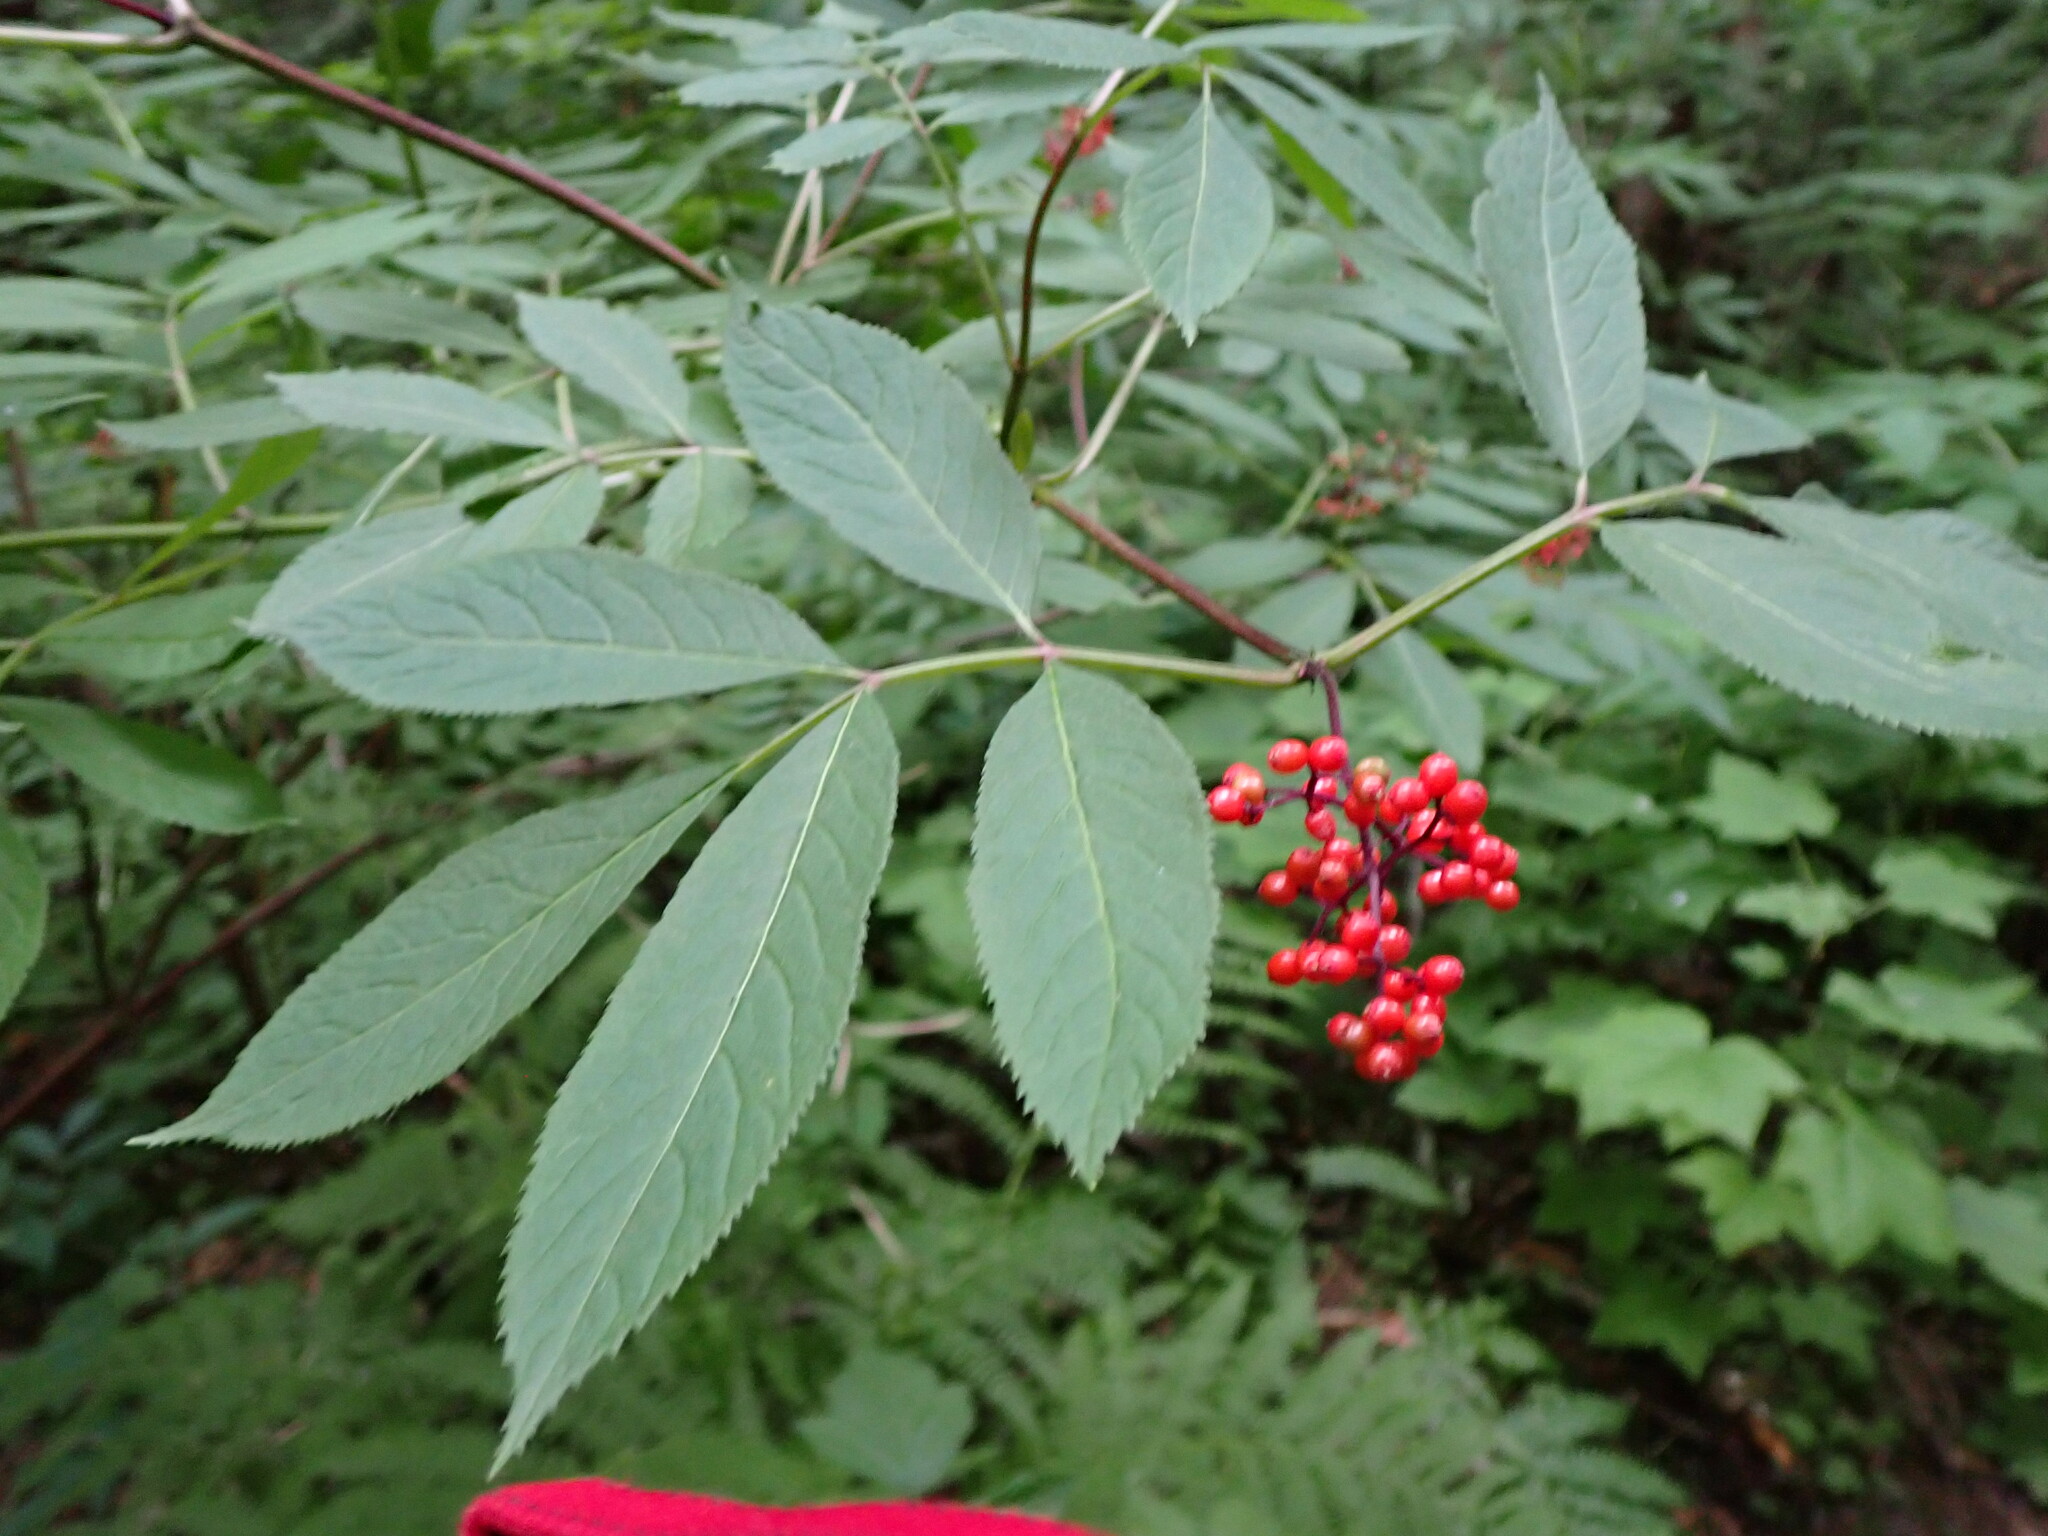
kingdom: Plantae
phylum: Tracheophyta
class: Magnoliopsida
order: Dipsacales
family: Viburnaceae
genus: Sambucus
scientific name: Sambucus racemosa
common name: Red-berried elder
